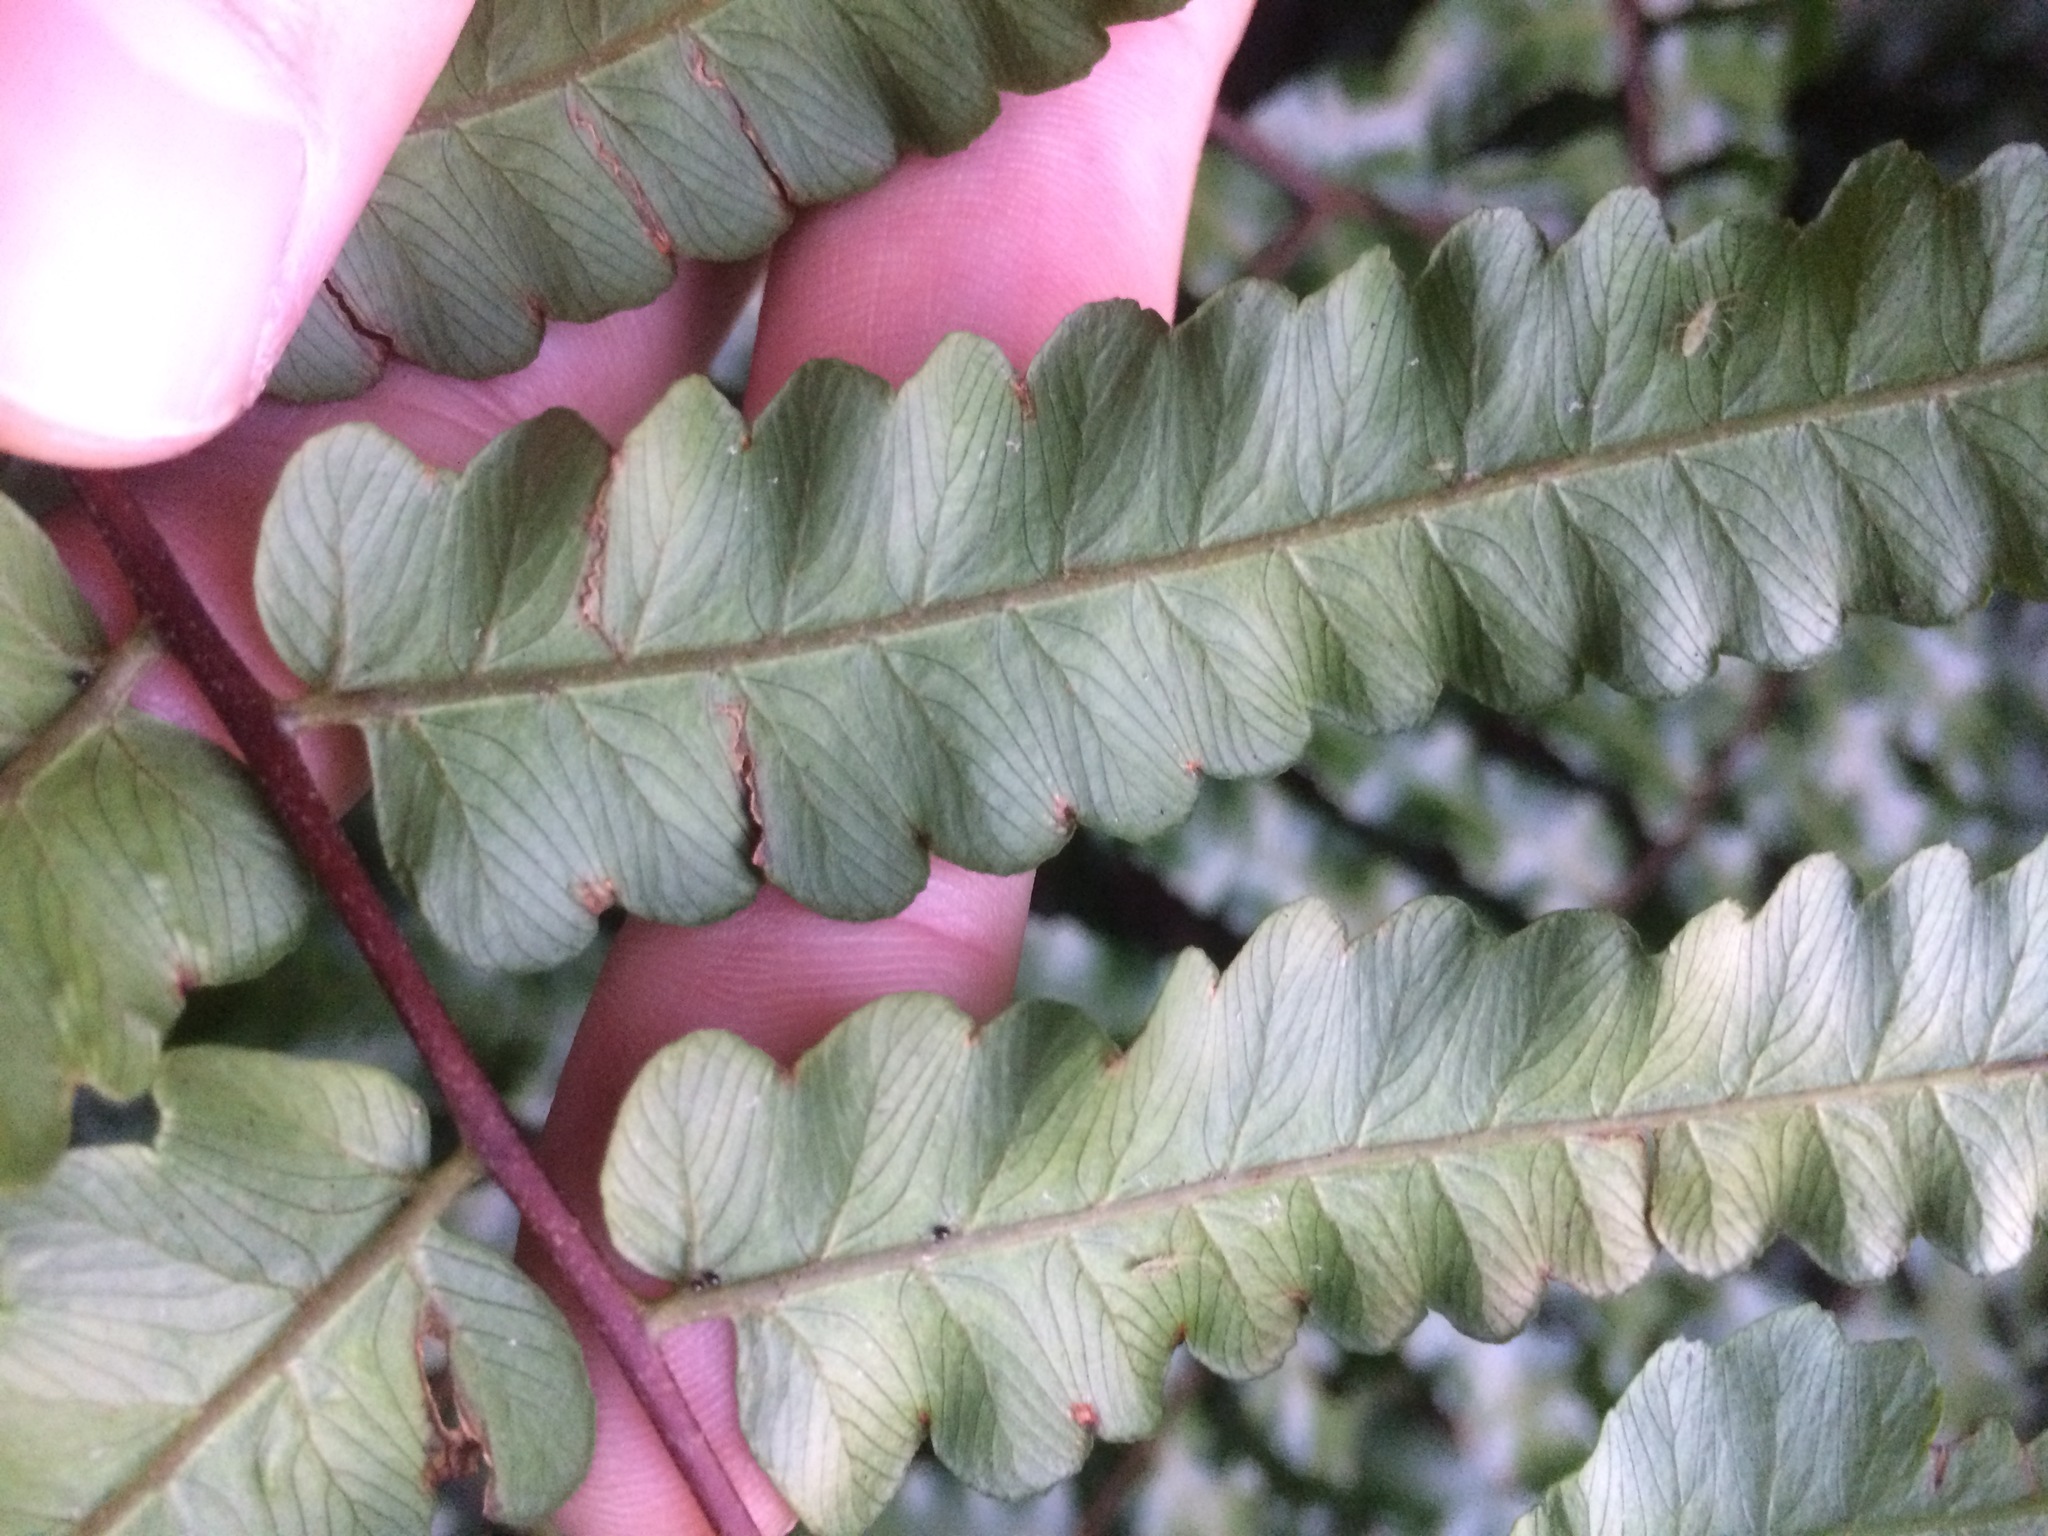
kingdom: Plantae
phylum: Tracheophyta
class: Polypodiopsida
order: Cyatheales
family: Cyatheaceae
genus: Gymnosphaera
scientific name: Gymnosphaera podophylla
